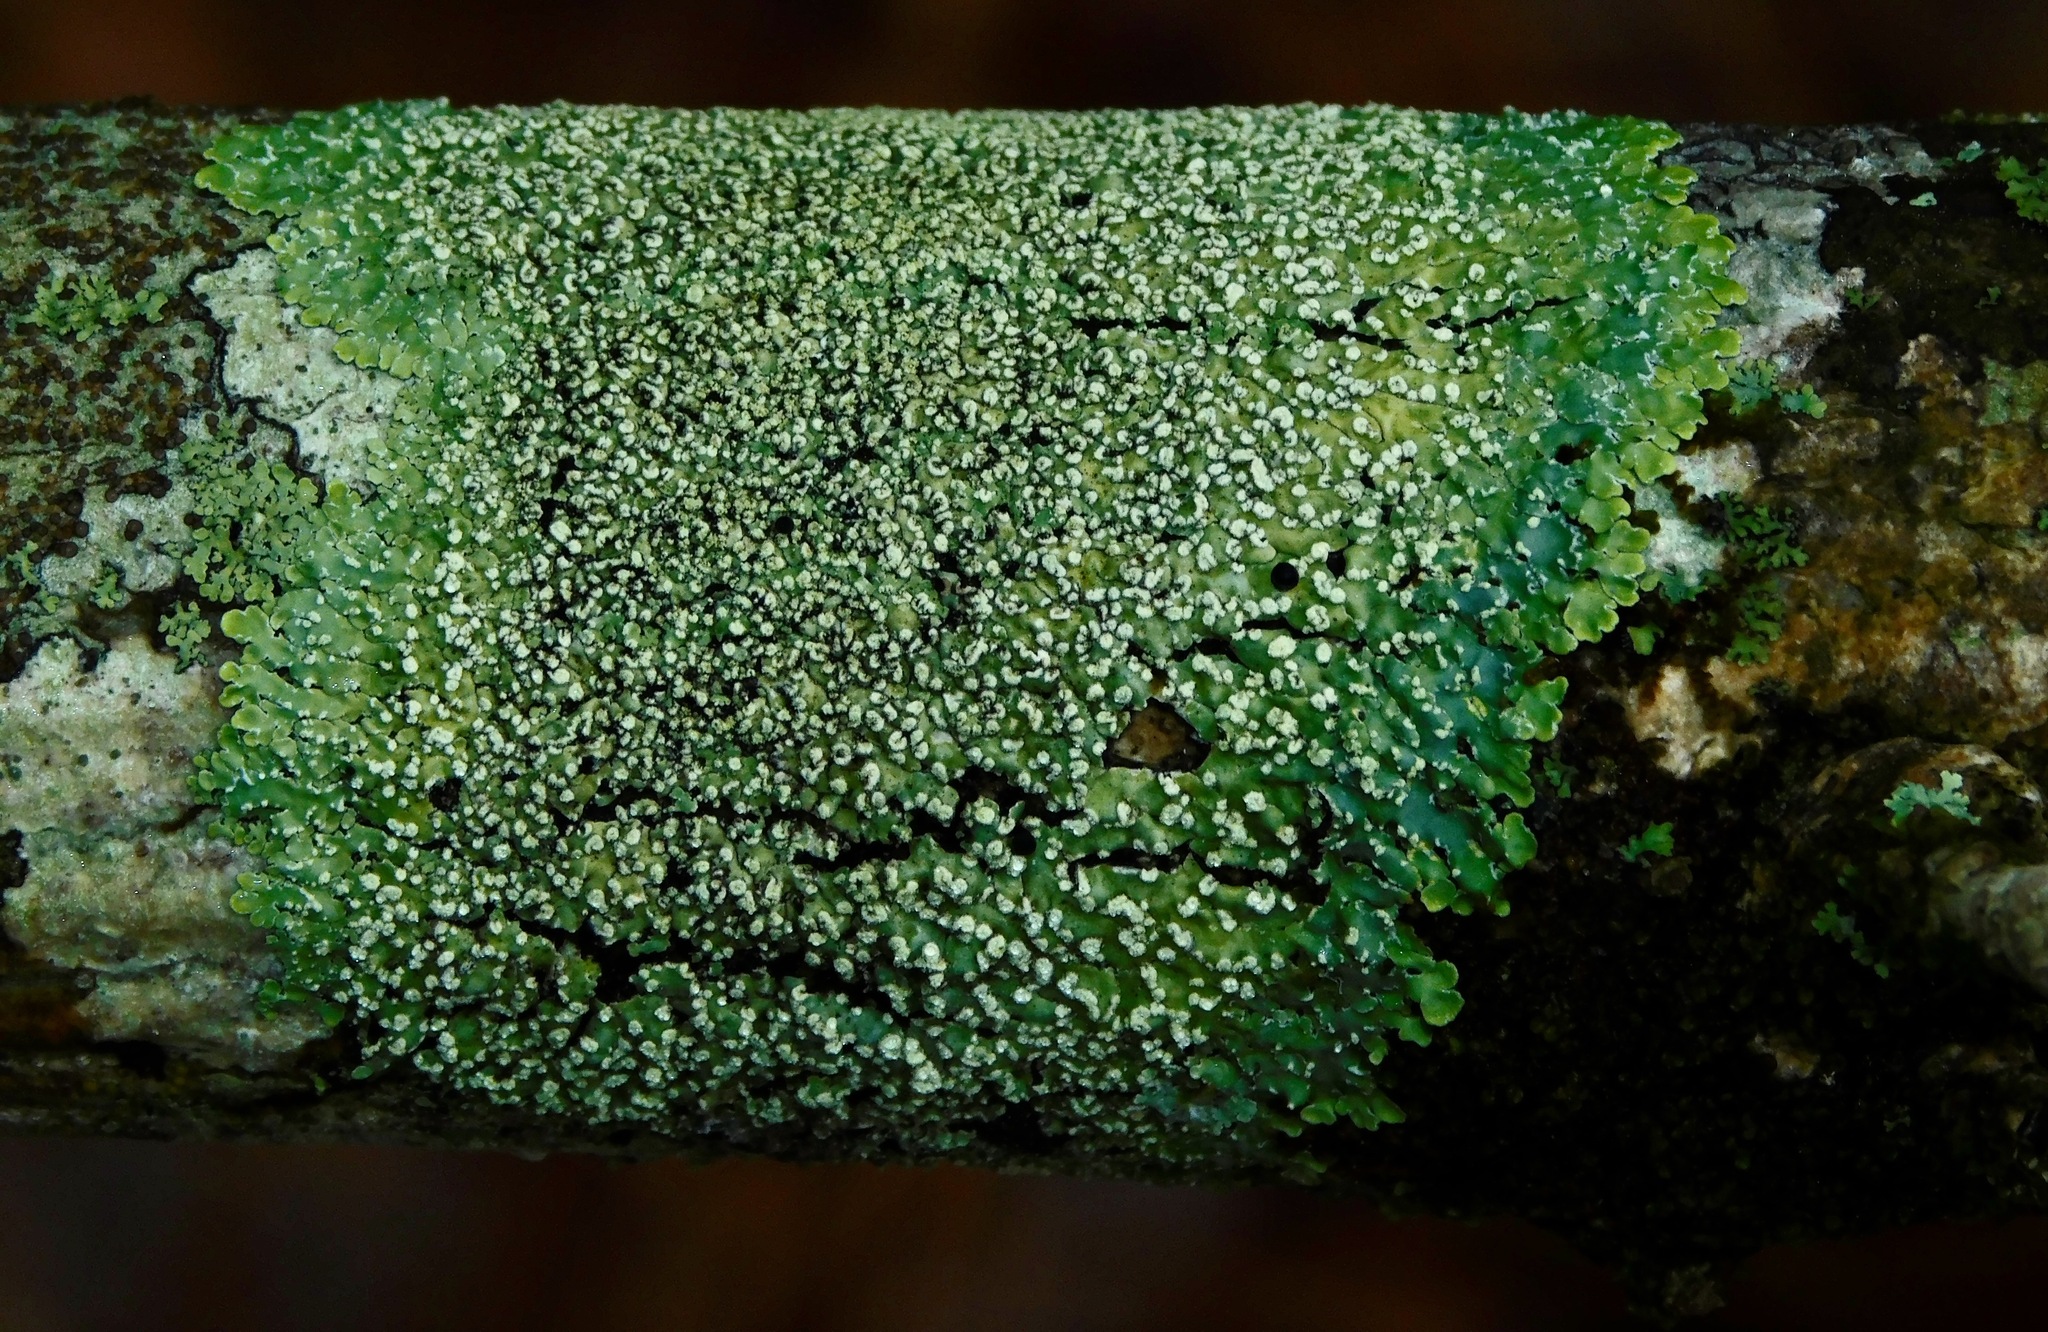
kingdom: Fungi
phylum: Ascomycota
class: Lecanoromycetes
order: Caliciales
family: Physciaceae
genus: Physcia
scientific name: Physcia americana
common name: American rosette lichen
